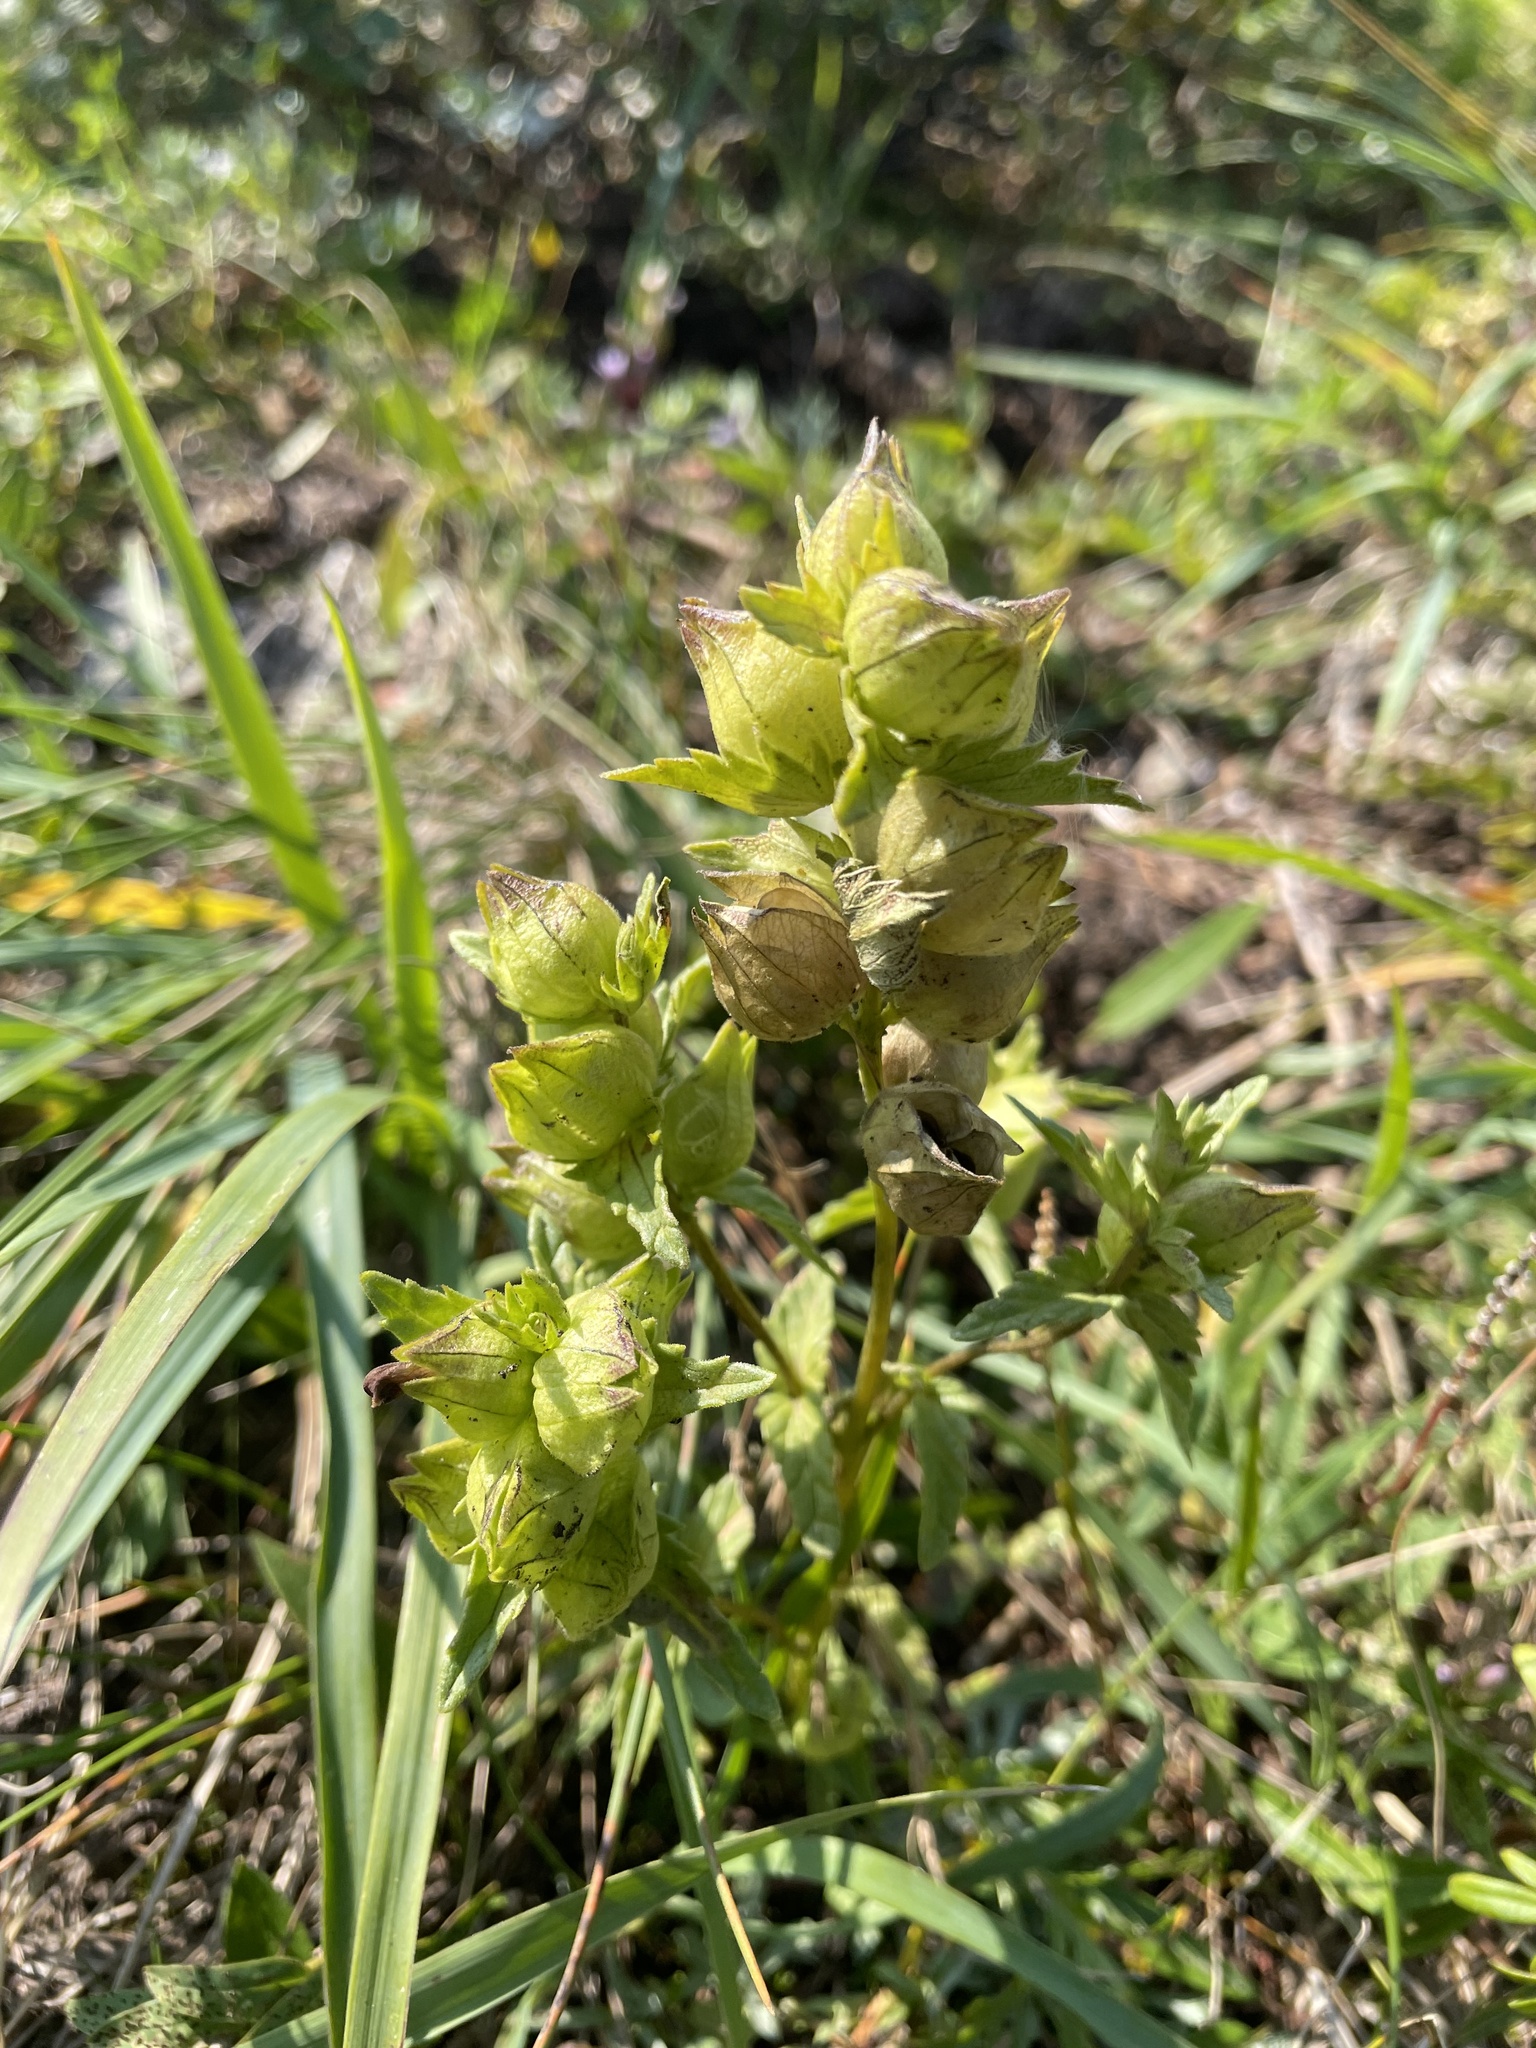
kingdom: Plantae
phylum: Tracheophyta
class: Magnoliopsida
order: Lamiales
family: Orobanchaceae
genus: Rhinanthus
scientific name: Rhinanthus groenlandicus
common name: Little yellow rattle
